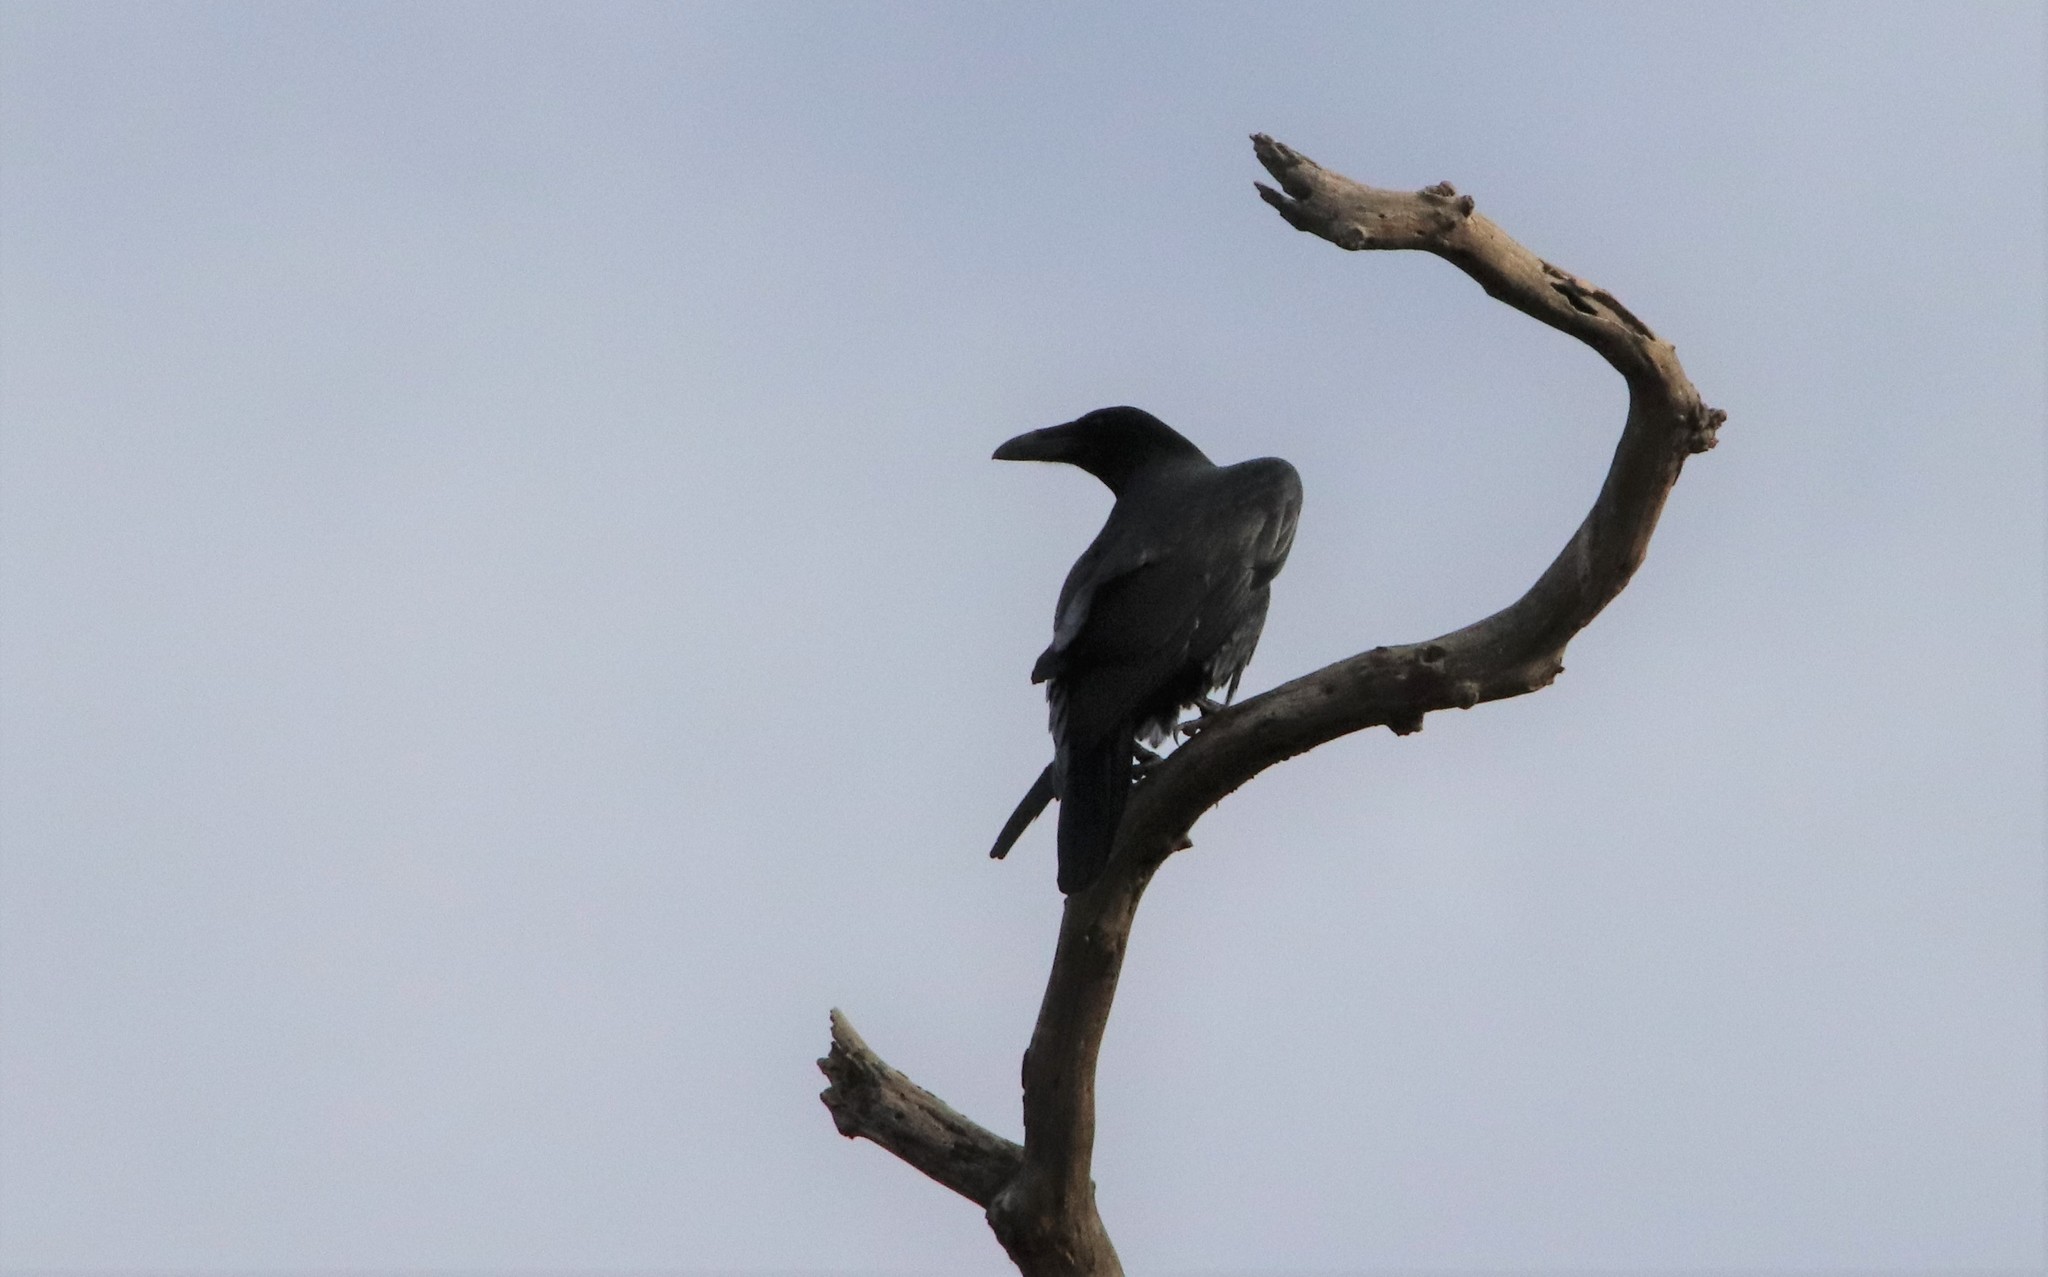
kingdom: Animalia
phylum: Chordata
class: Aves
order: Passeriformes
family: Corvidae
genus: Corvus
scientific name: Corvus corax
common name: Common raven
